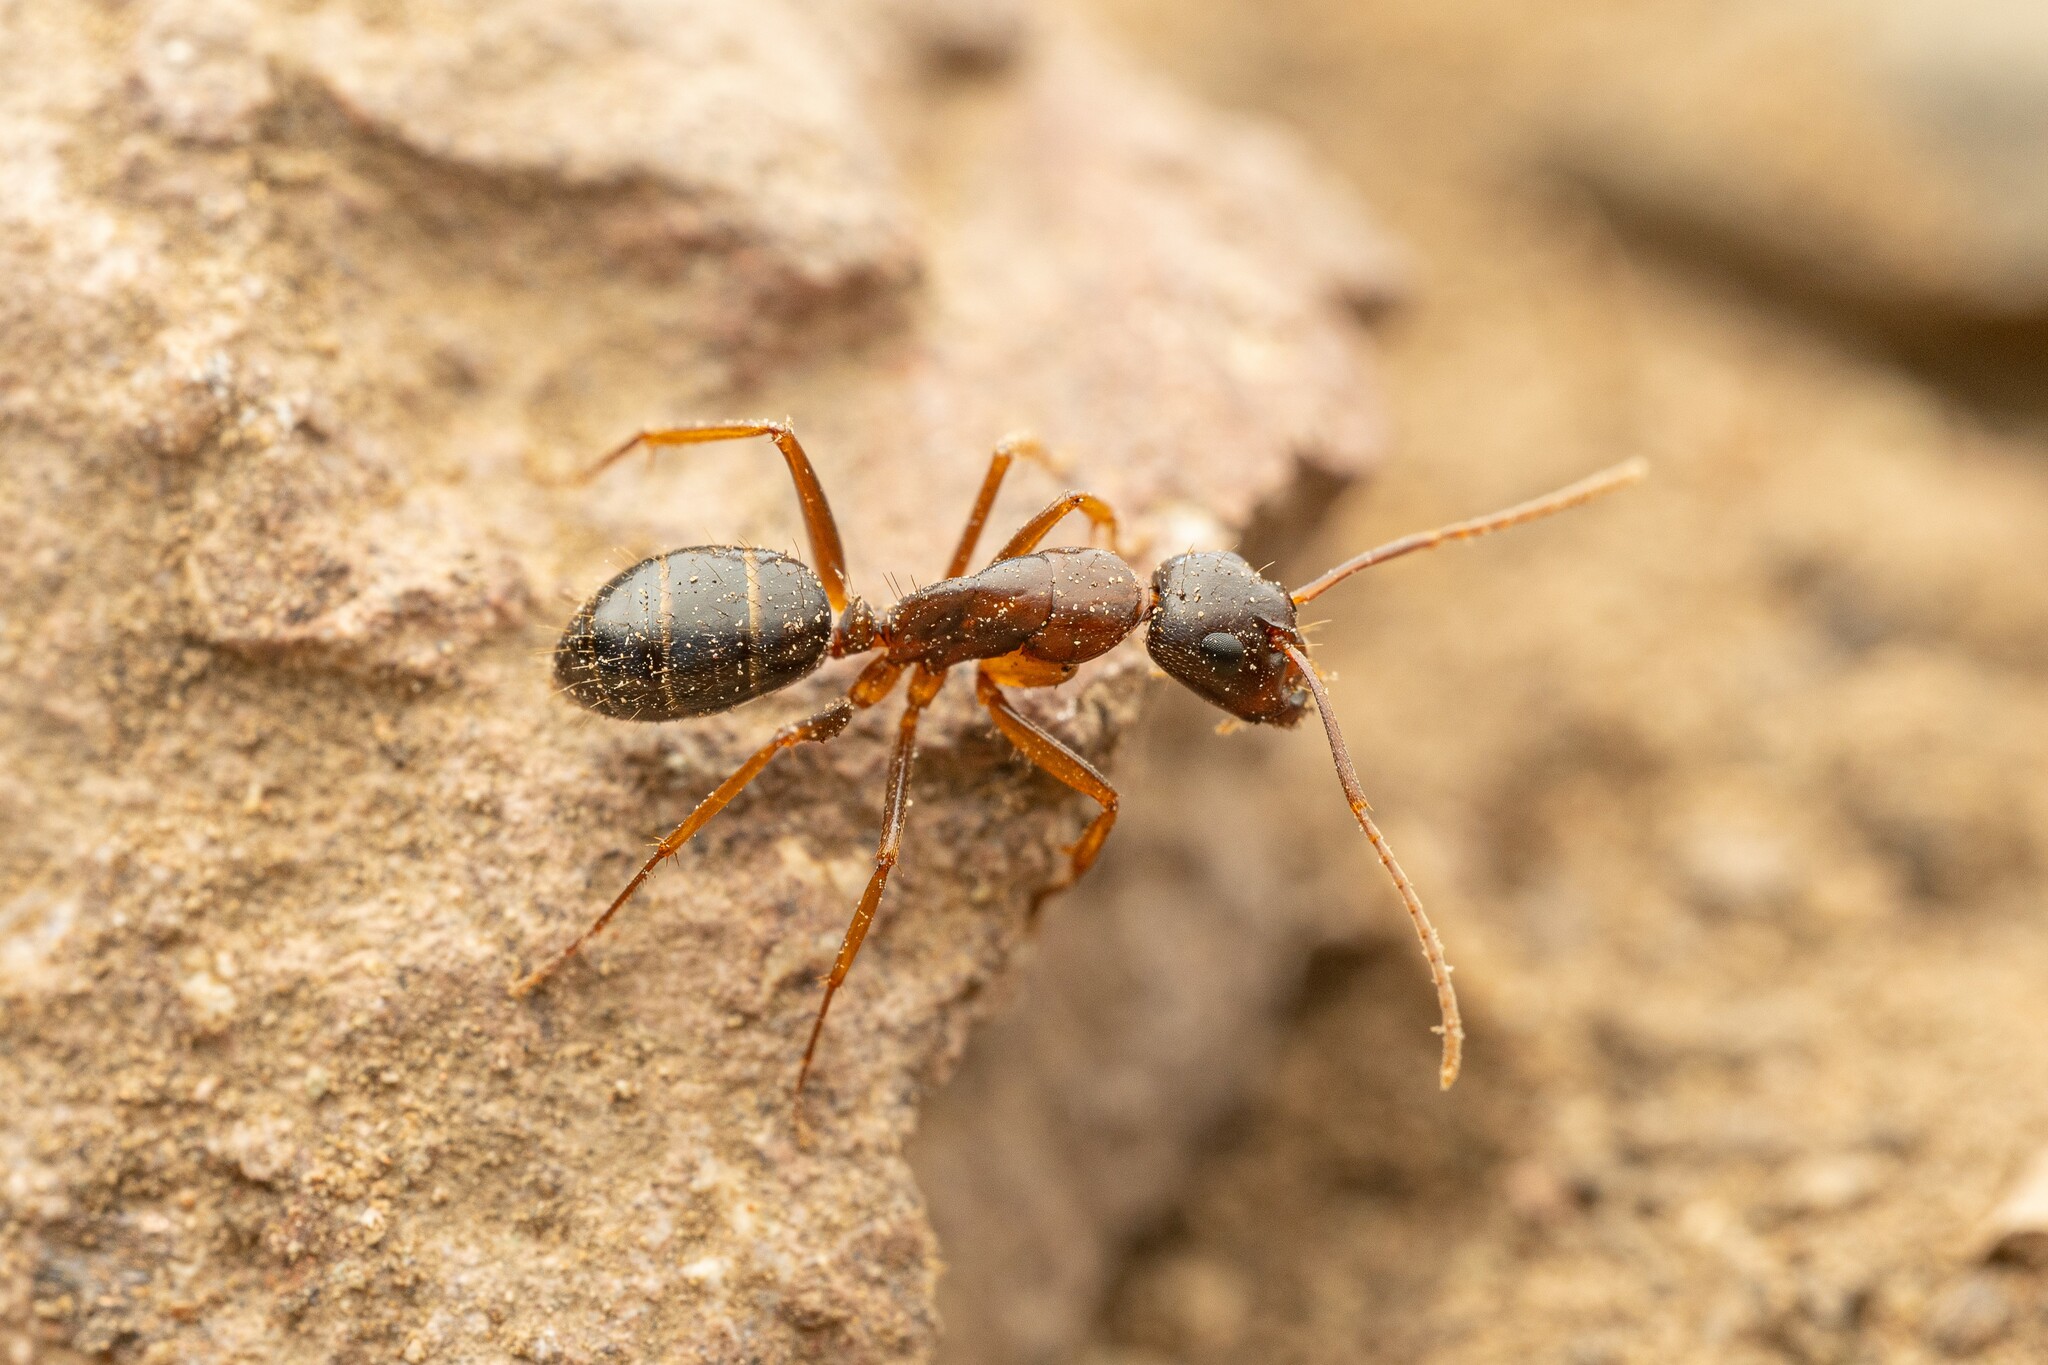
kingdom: Animalia
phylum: Arthropoda
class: Insecta
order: Hymenoptera
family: Formicidae
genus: Camponotus
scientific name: Camponotus sansabeanus
